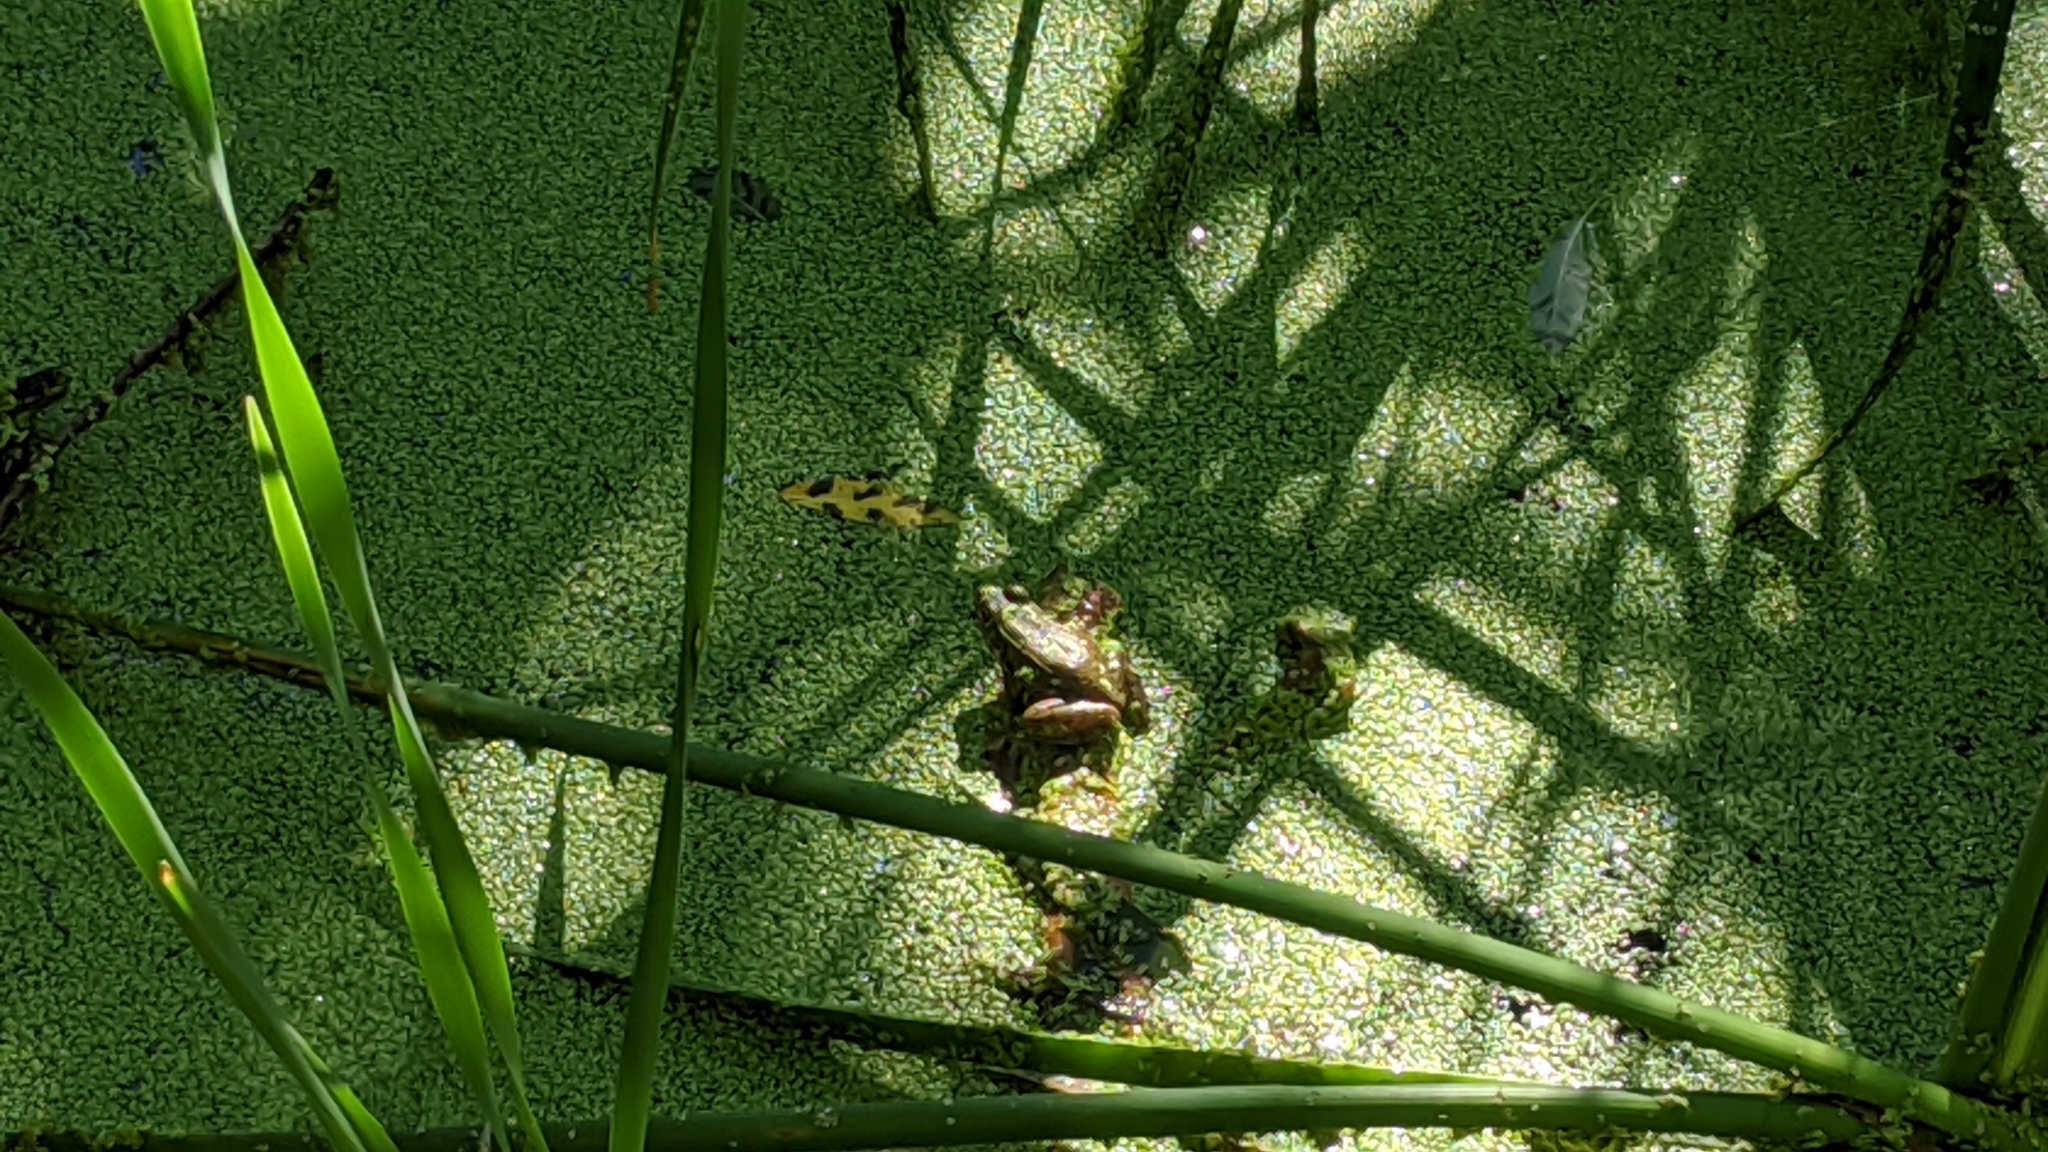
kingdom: Animalia
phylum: Chordata
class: Amphibia
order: Anura
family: Ranidae
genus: Lithobates
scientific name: Lithobates clamitans
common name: Green frog
